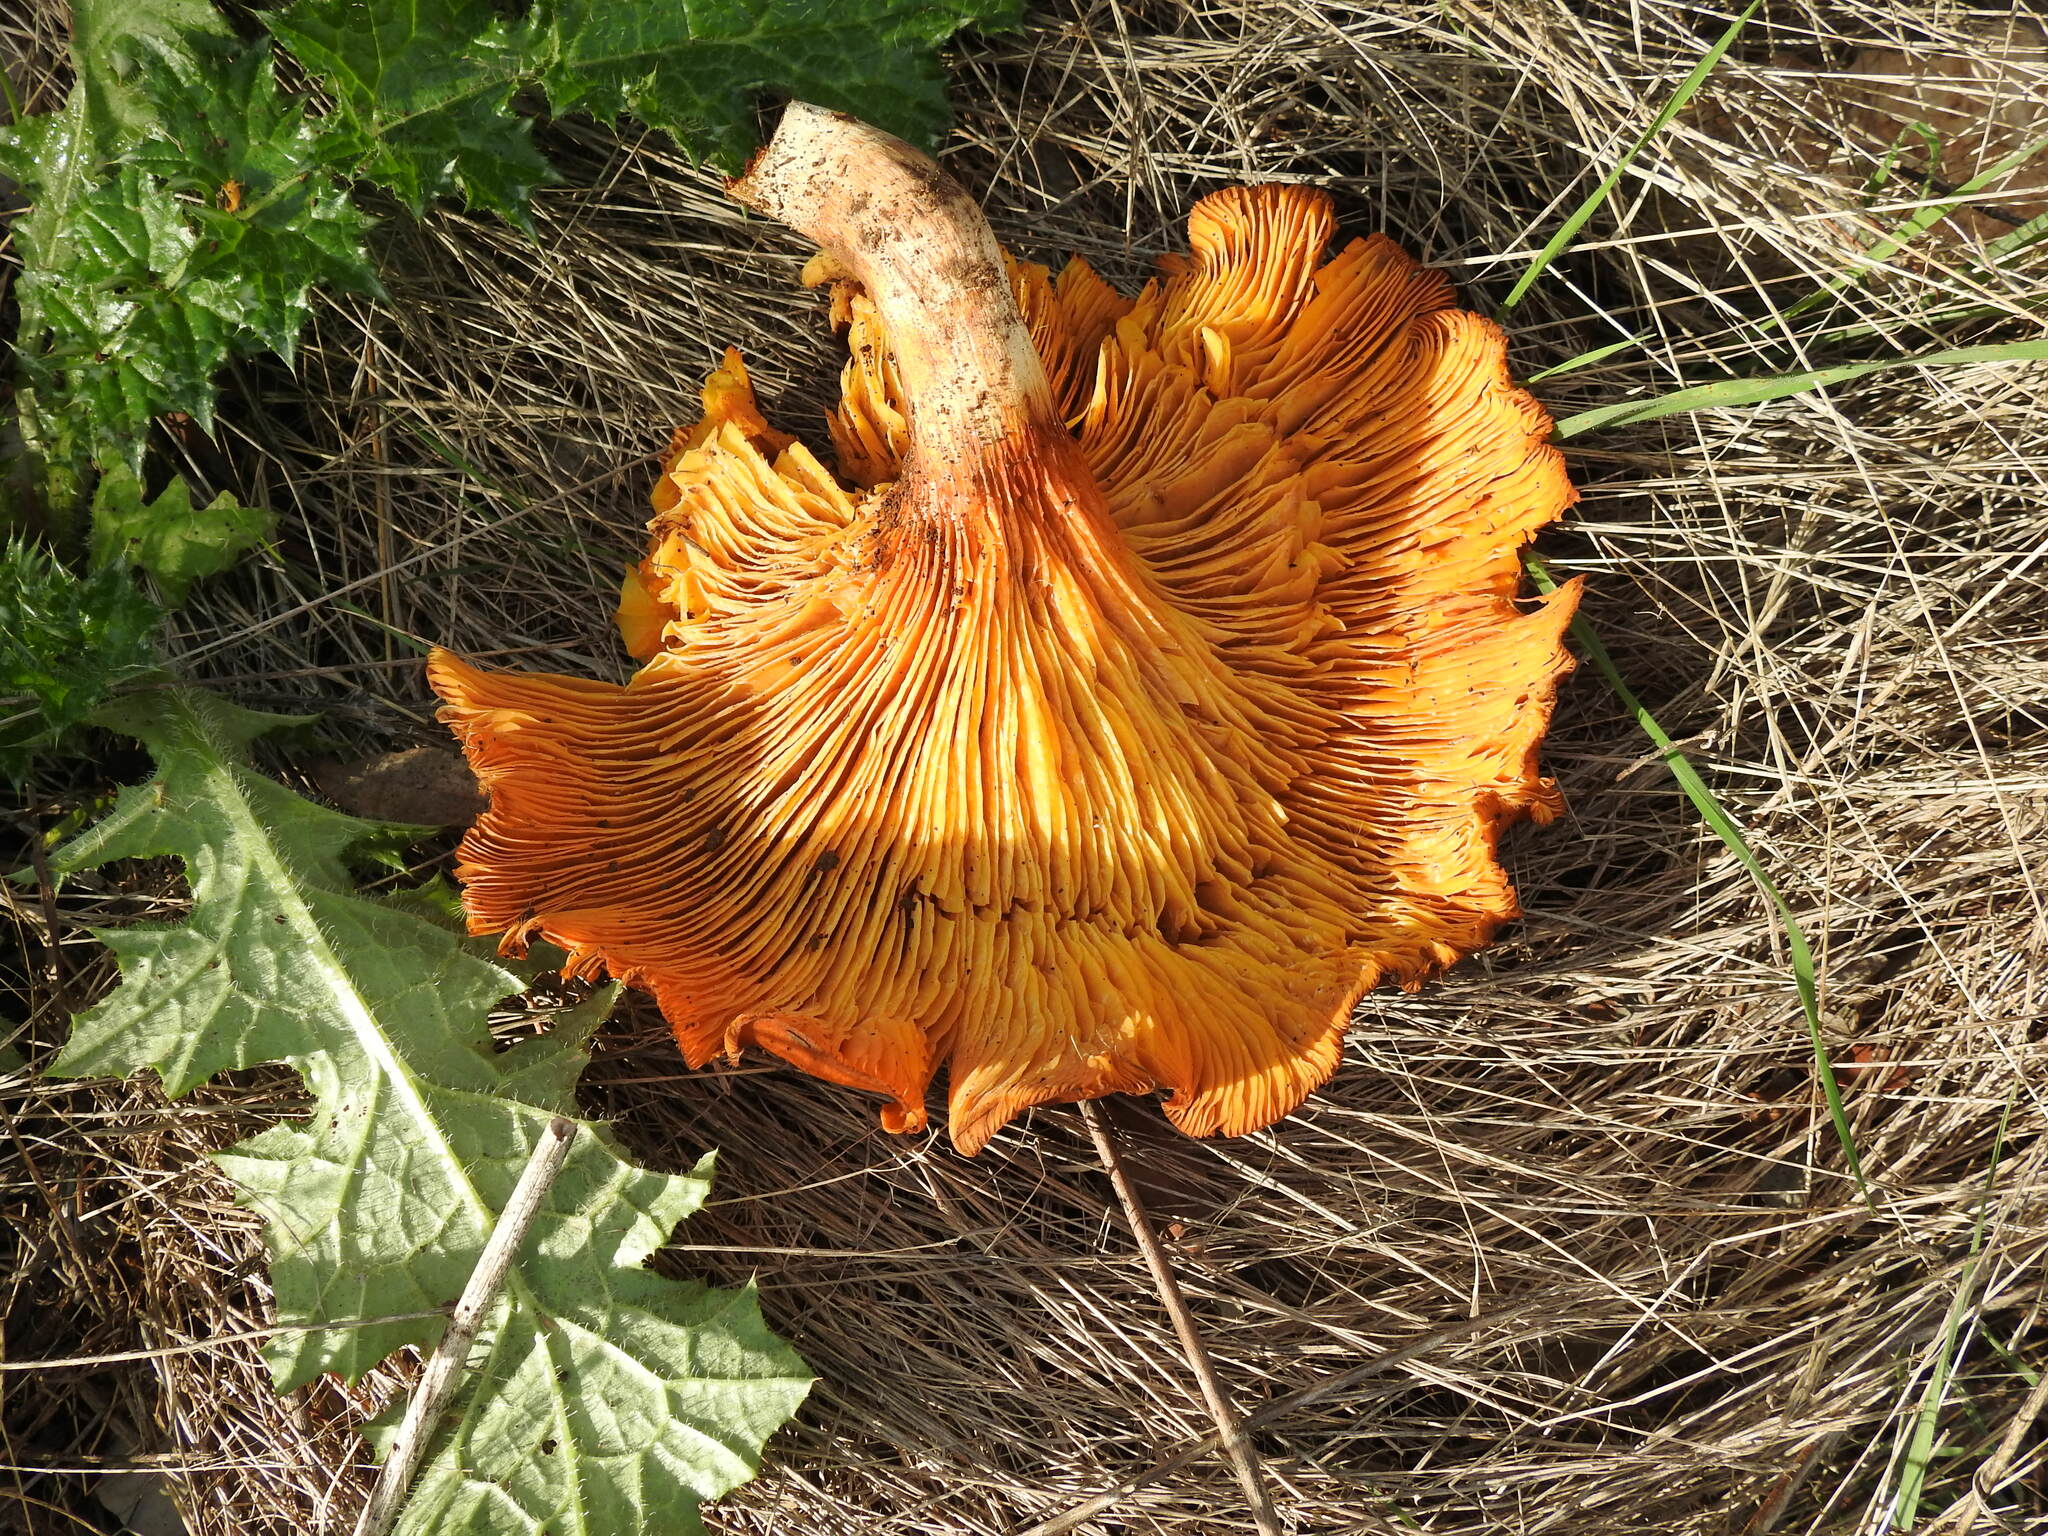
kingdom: Fungi
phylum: Basidiomycota
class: Agaricomycetes
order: Agaricales
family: Omphalotaceae
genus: Omphalotus
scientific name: Omphalotus olearius
